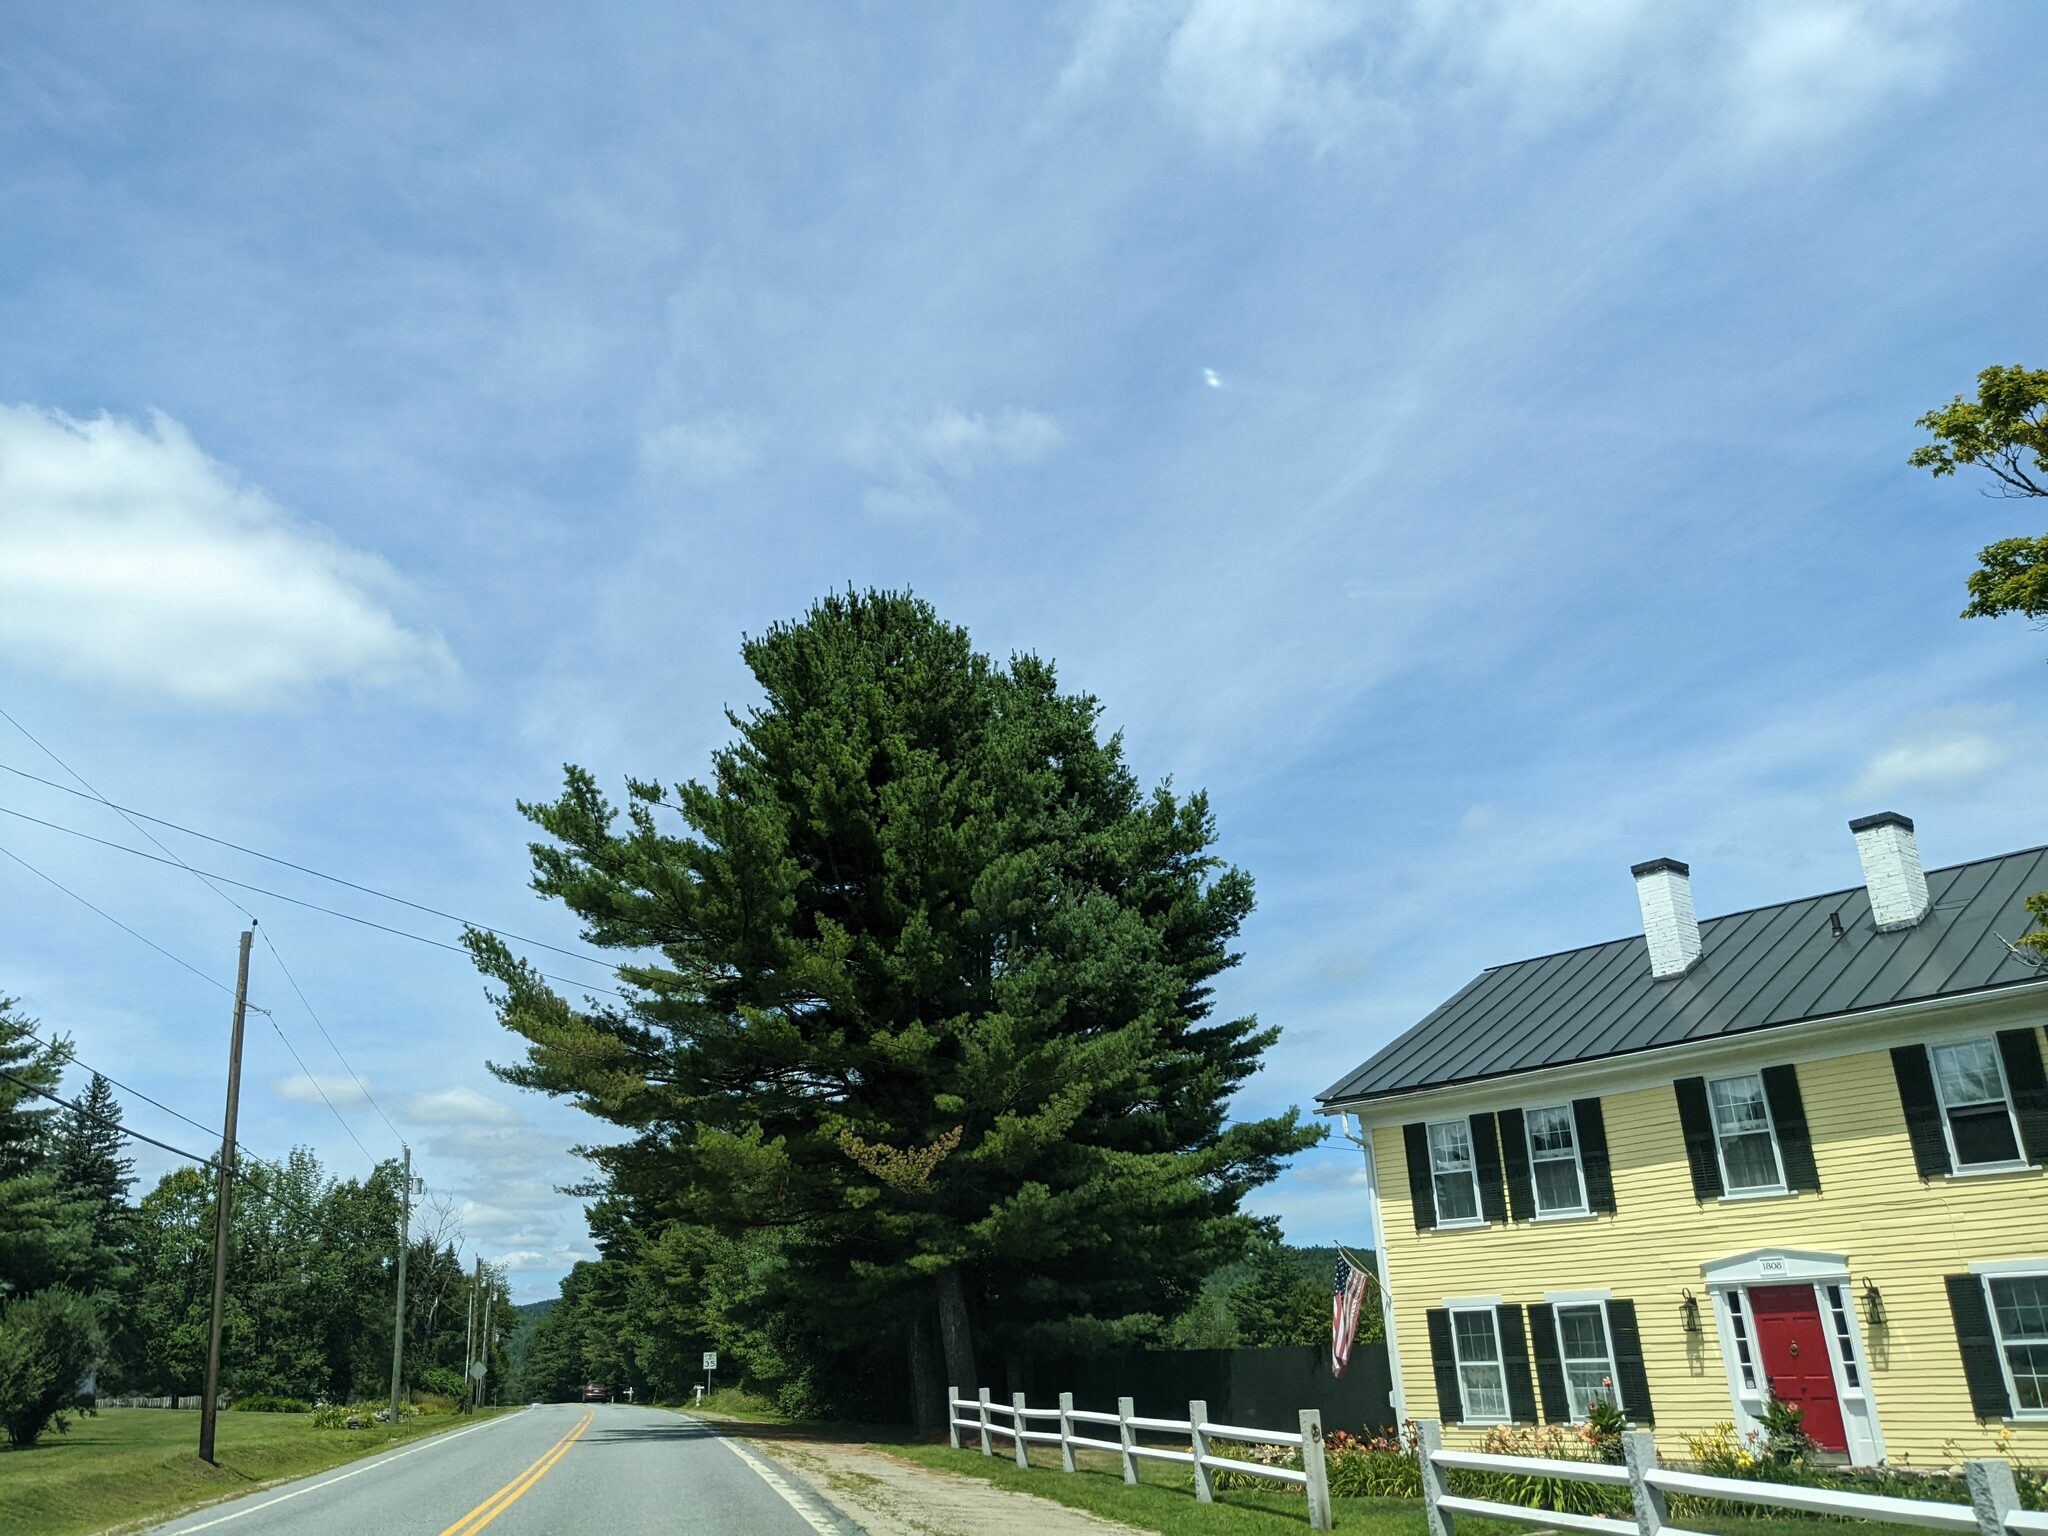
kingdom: Plantae
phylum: Tracheophyta
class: Pinopsida
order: Pinales
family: Pinaceae
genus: Pinus
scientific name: Pinus strobus
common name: Weymouth pine
